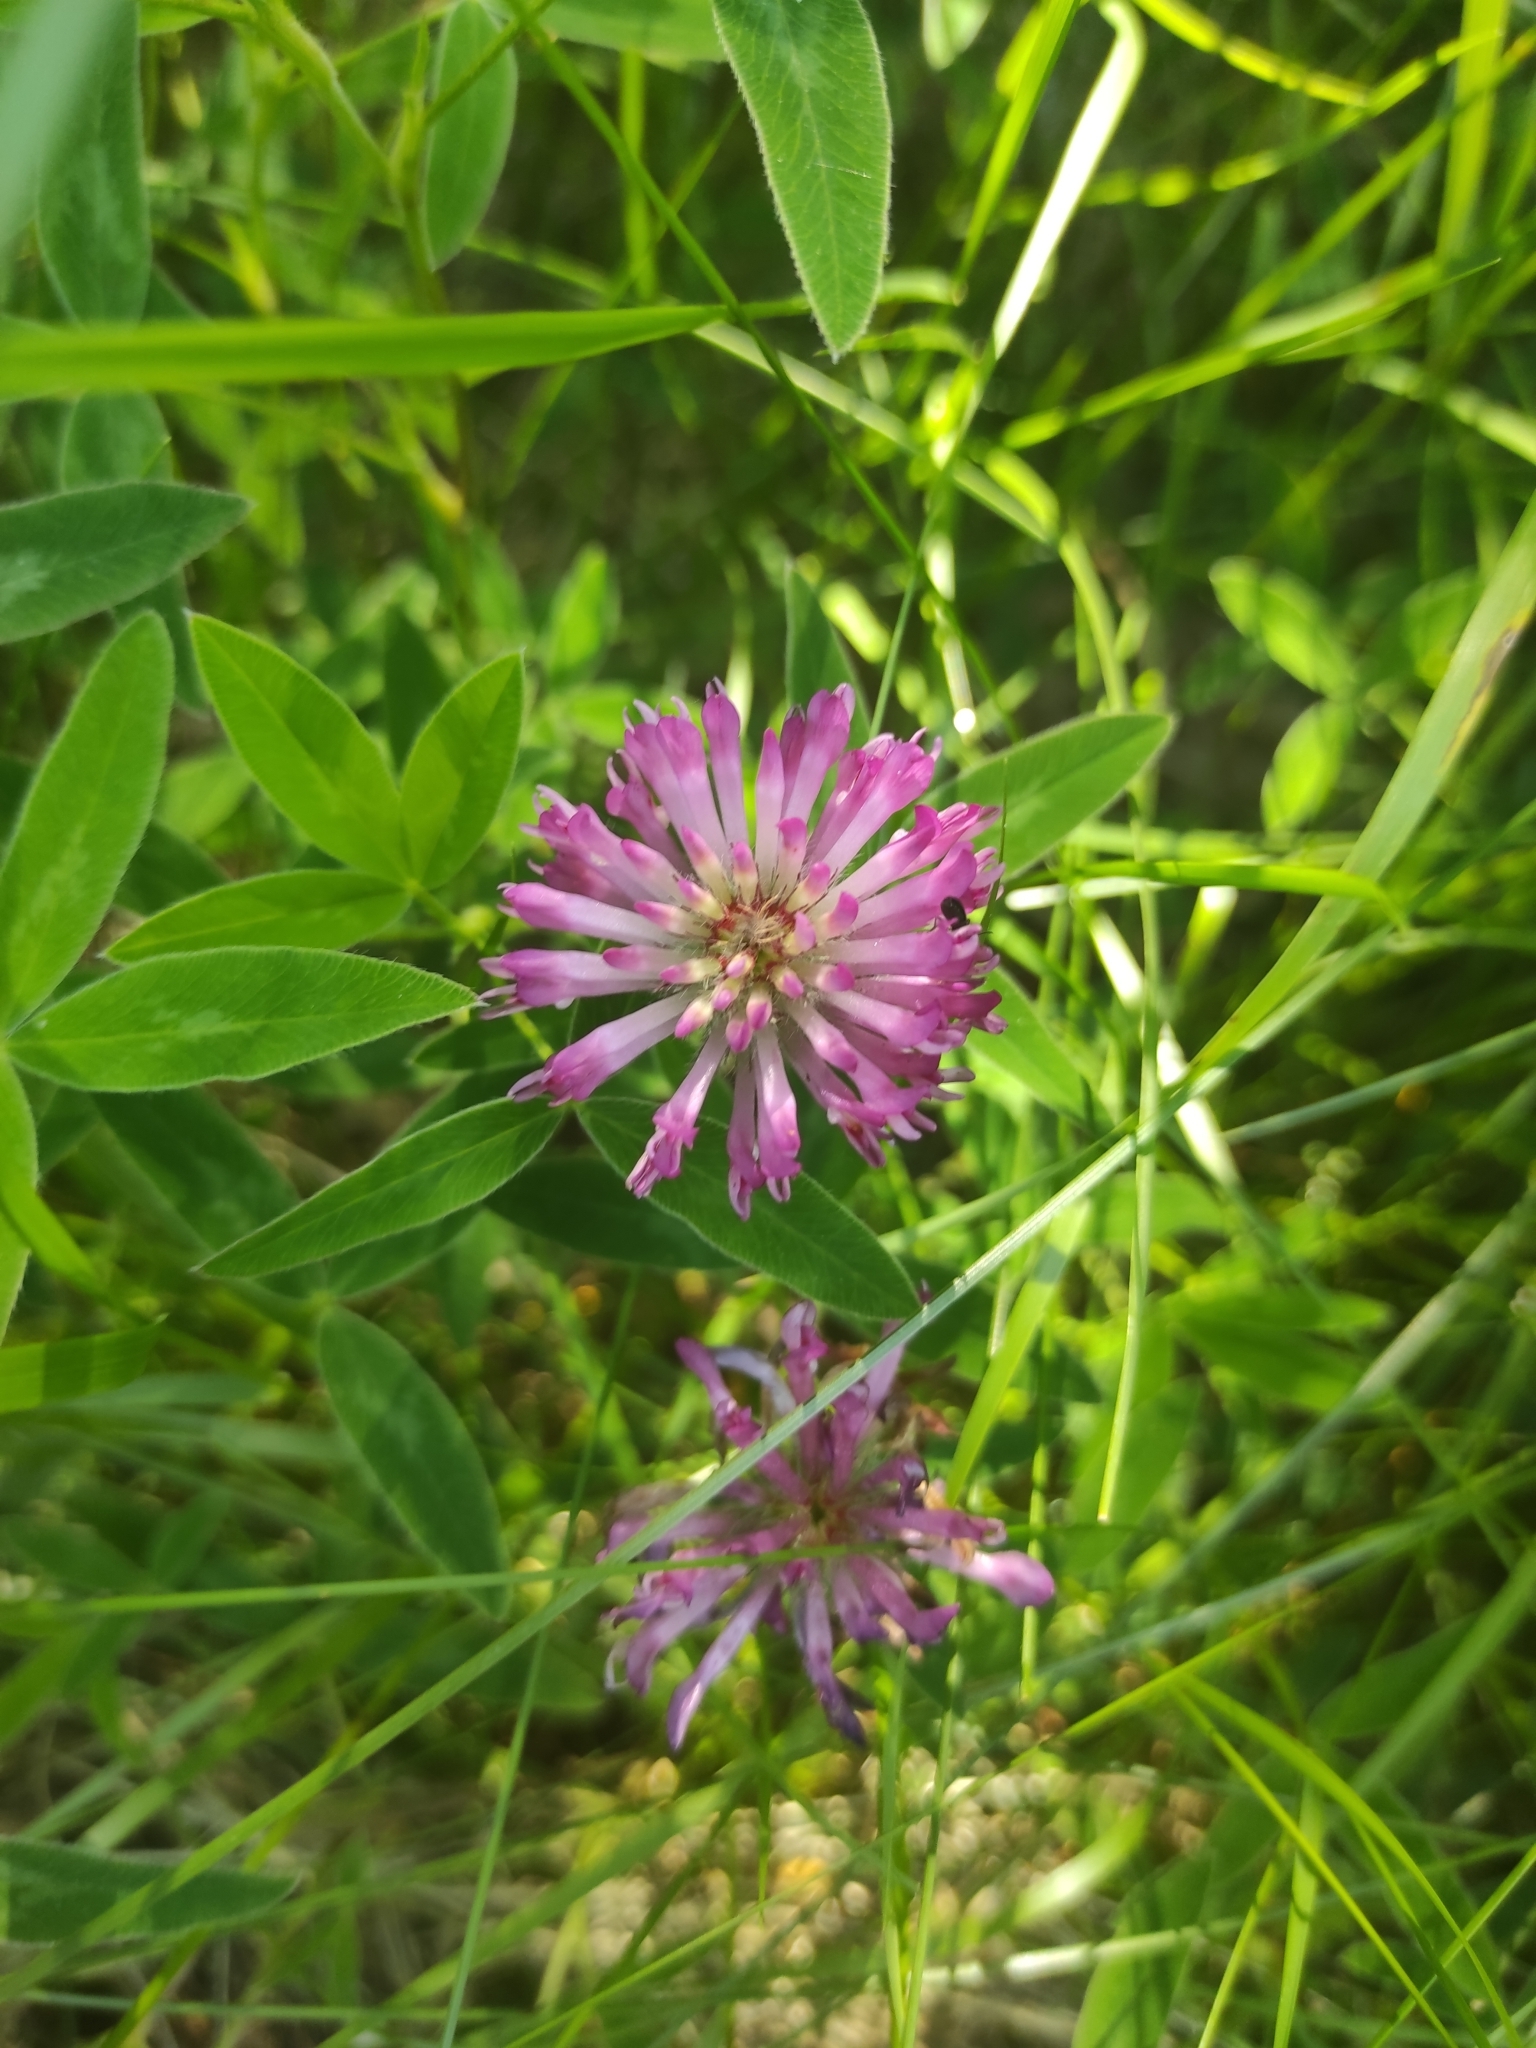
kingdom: Plantae
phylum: Tracheophyta
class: Magnoliopsida
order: Fabales
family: Fabaceae
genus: Trifolium
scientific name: Trifolium medium
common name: Zigzag clover
